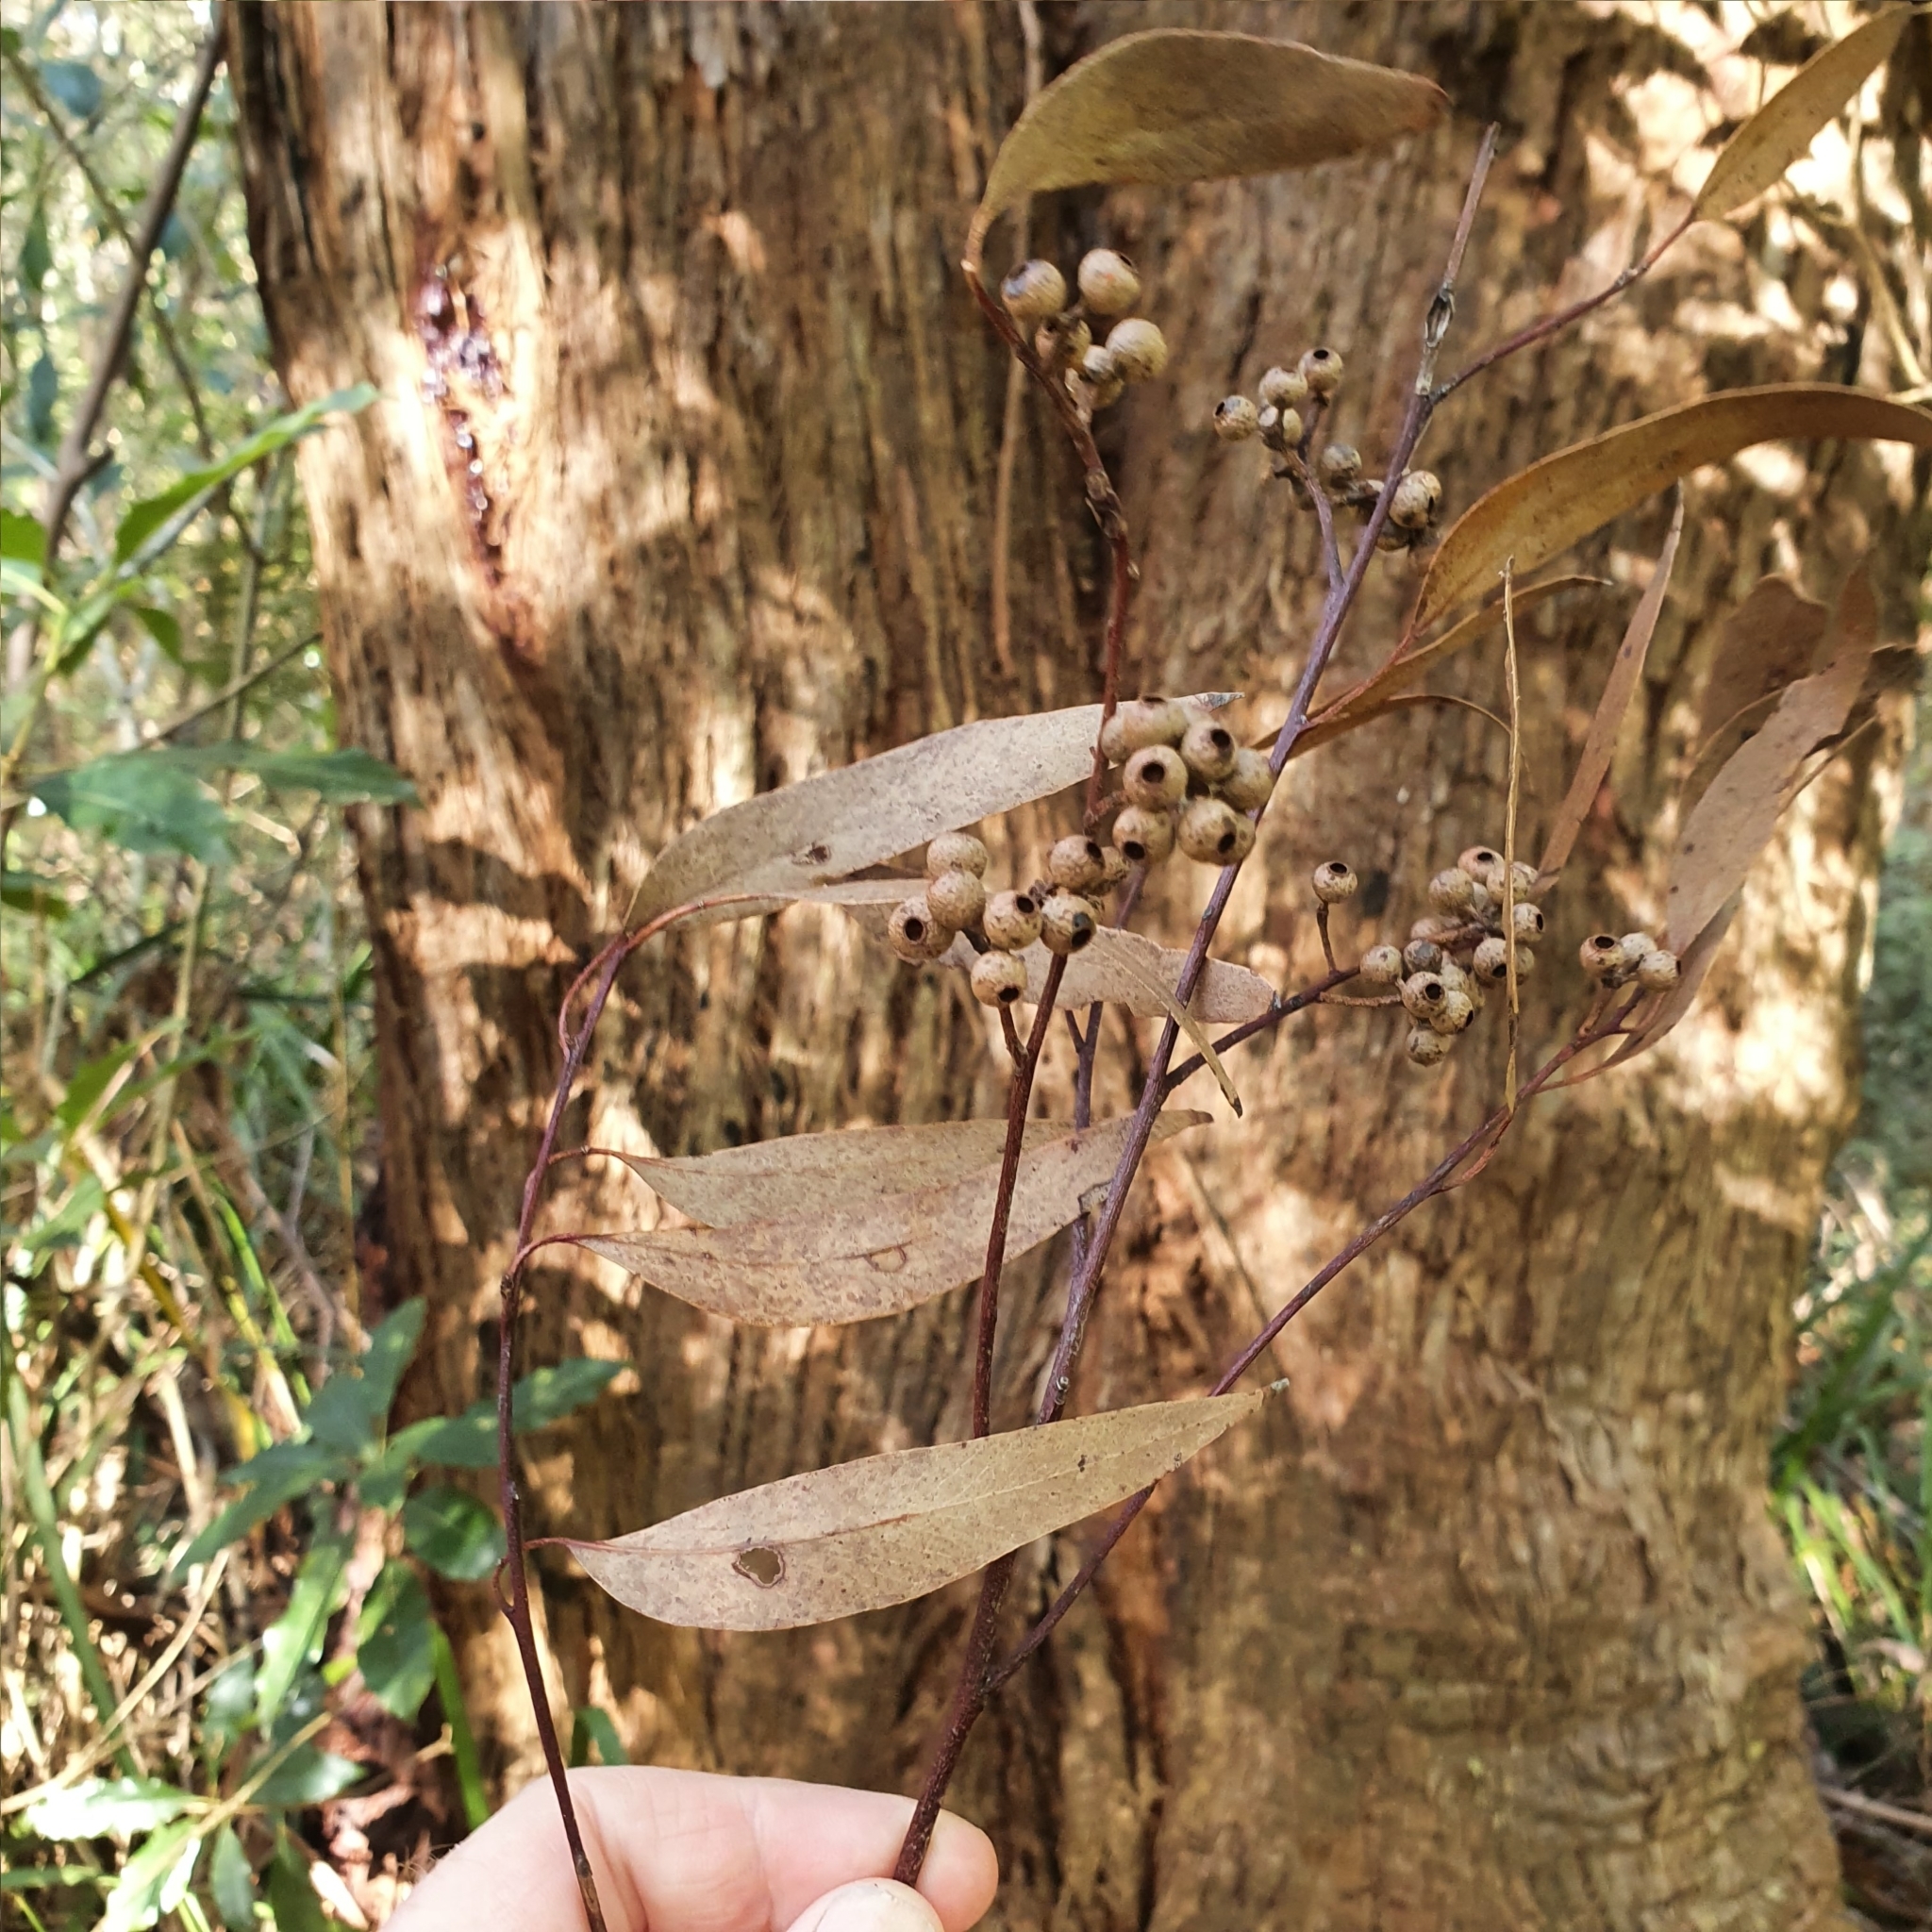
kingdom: Plantae
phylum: Tracheophyta
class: Magnoliopsida
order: Myrtales
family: Myrtaceae
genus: Eucalyptus
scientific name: Eucalyptus piperita
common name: Sydney peppermint
